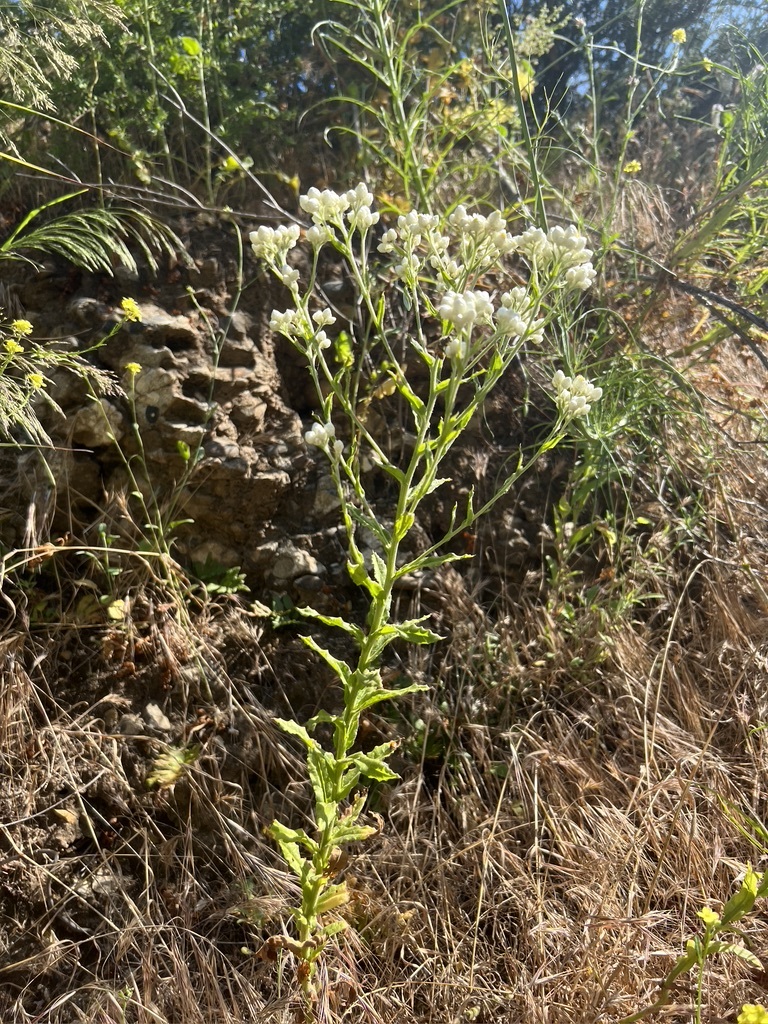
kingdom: Plantae
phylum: Tracheophyta
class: Magnoliopsida
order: Asterales
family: Asteraceae
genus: Pseudognaphalium
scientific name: Pseudognaphalium californicum
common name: California rabbit-tobacco
